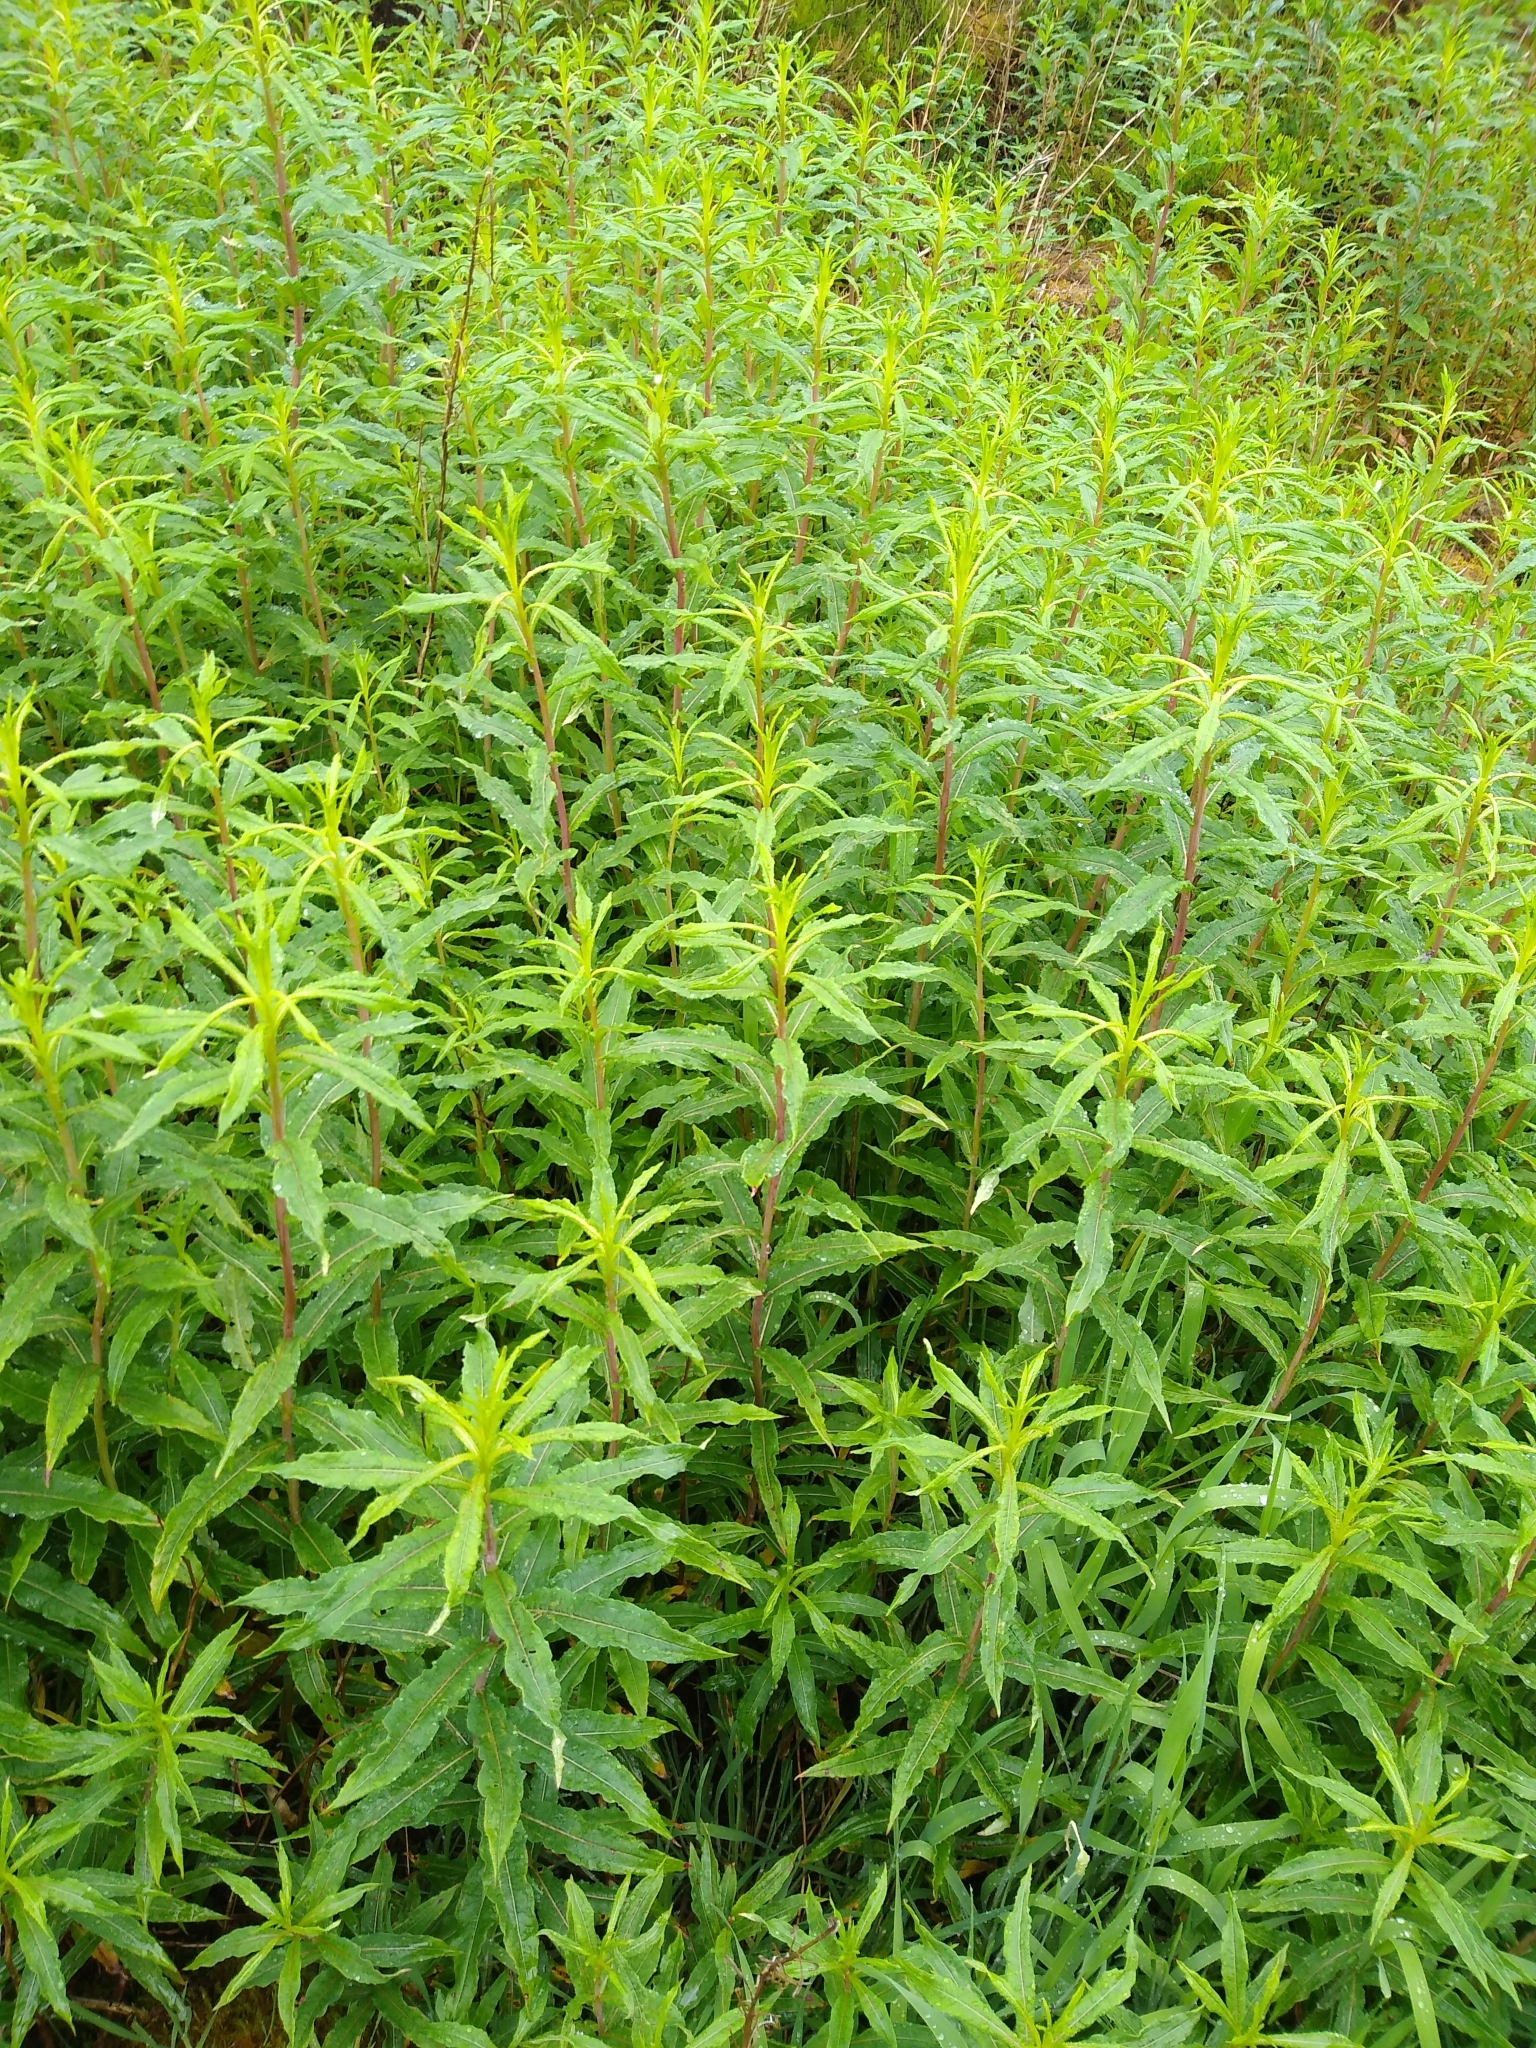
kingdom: Plantae
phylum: Tracheophyta
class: Magnoliopsida
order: Myrtales
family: Onagraceae
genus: Chamaenerion
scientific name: Chamaenerion angustifolium
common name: Fireweed
